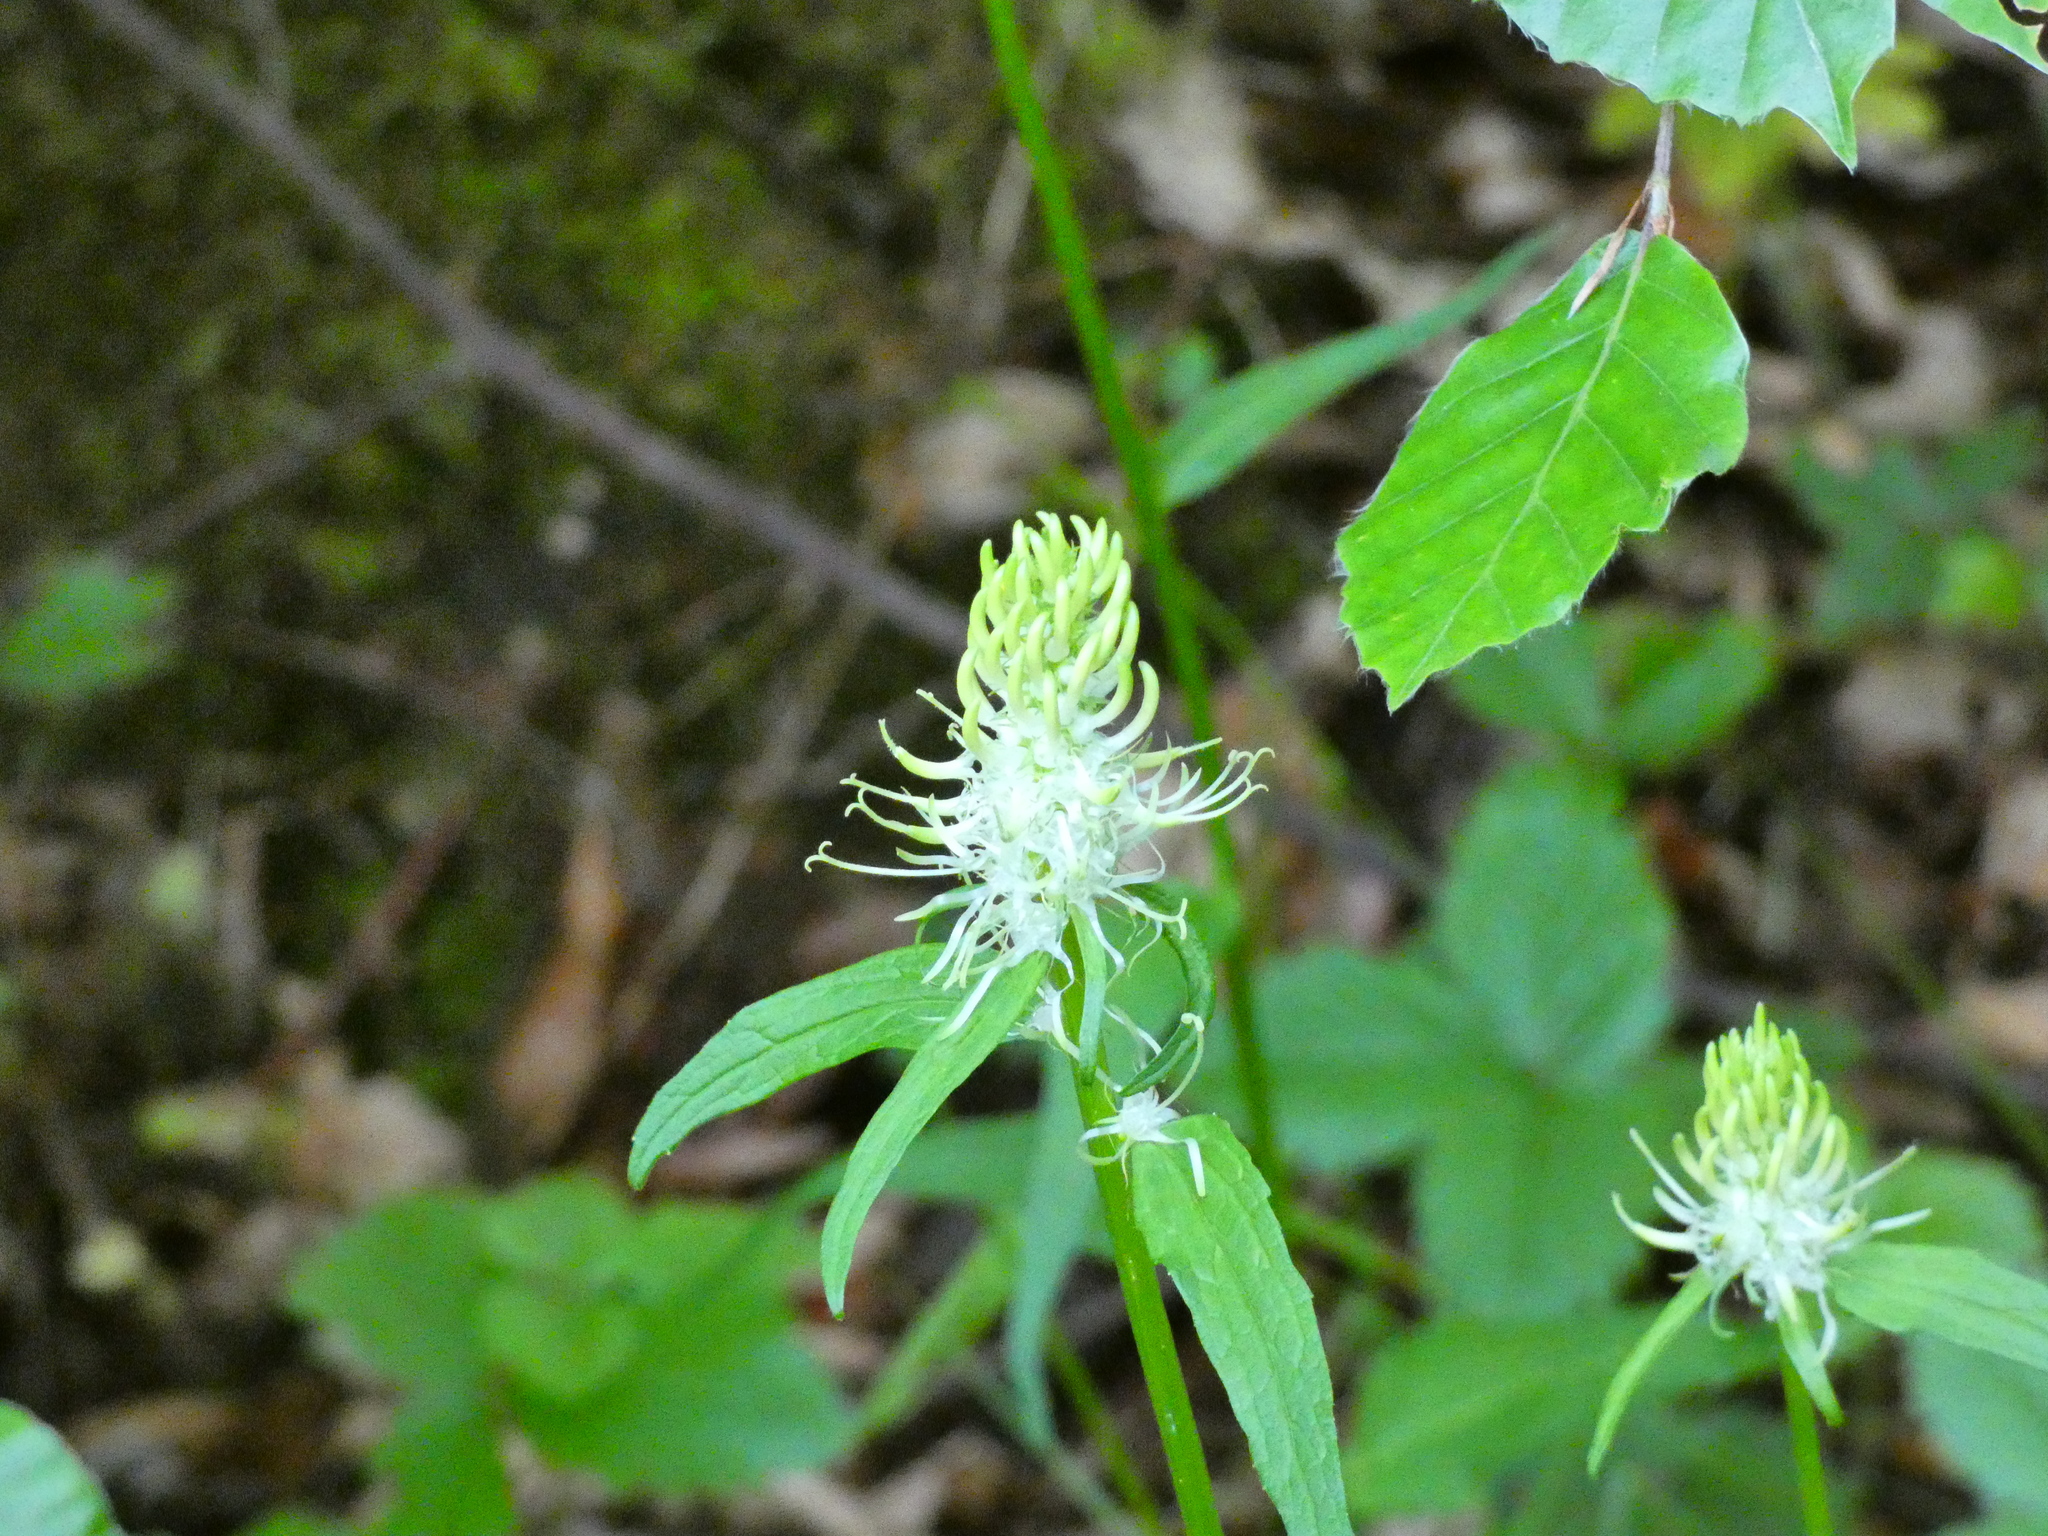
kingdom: Plantae
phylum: Tracheophyta
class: Magnoliopsida
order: Asterales
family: Campanulaceae
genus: Phyteuma
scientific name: Phyteuma spicatum
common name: Spiked rampion
